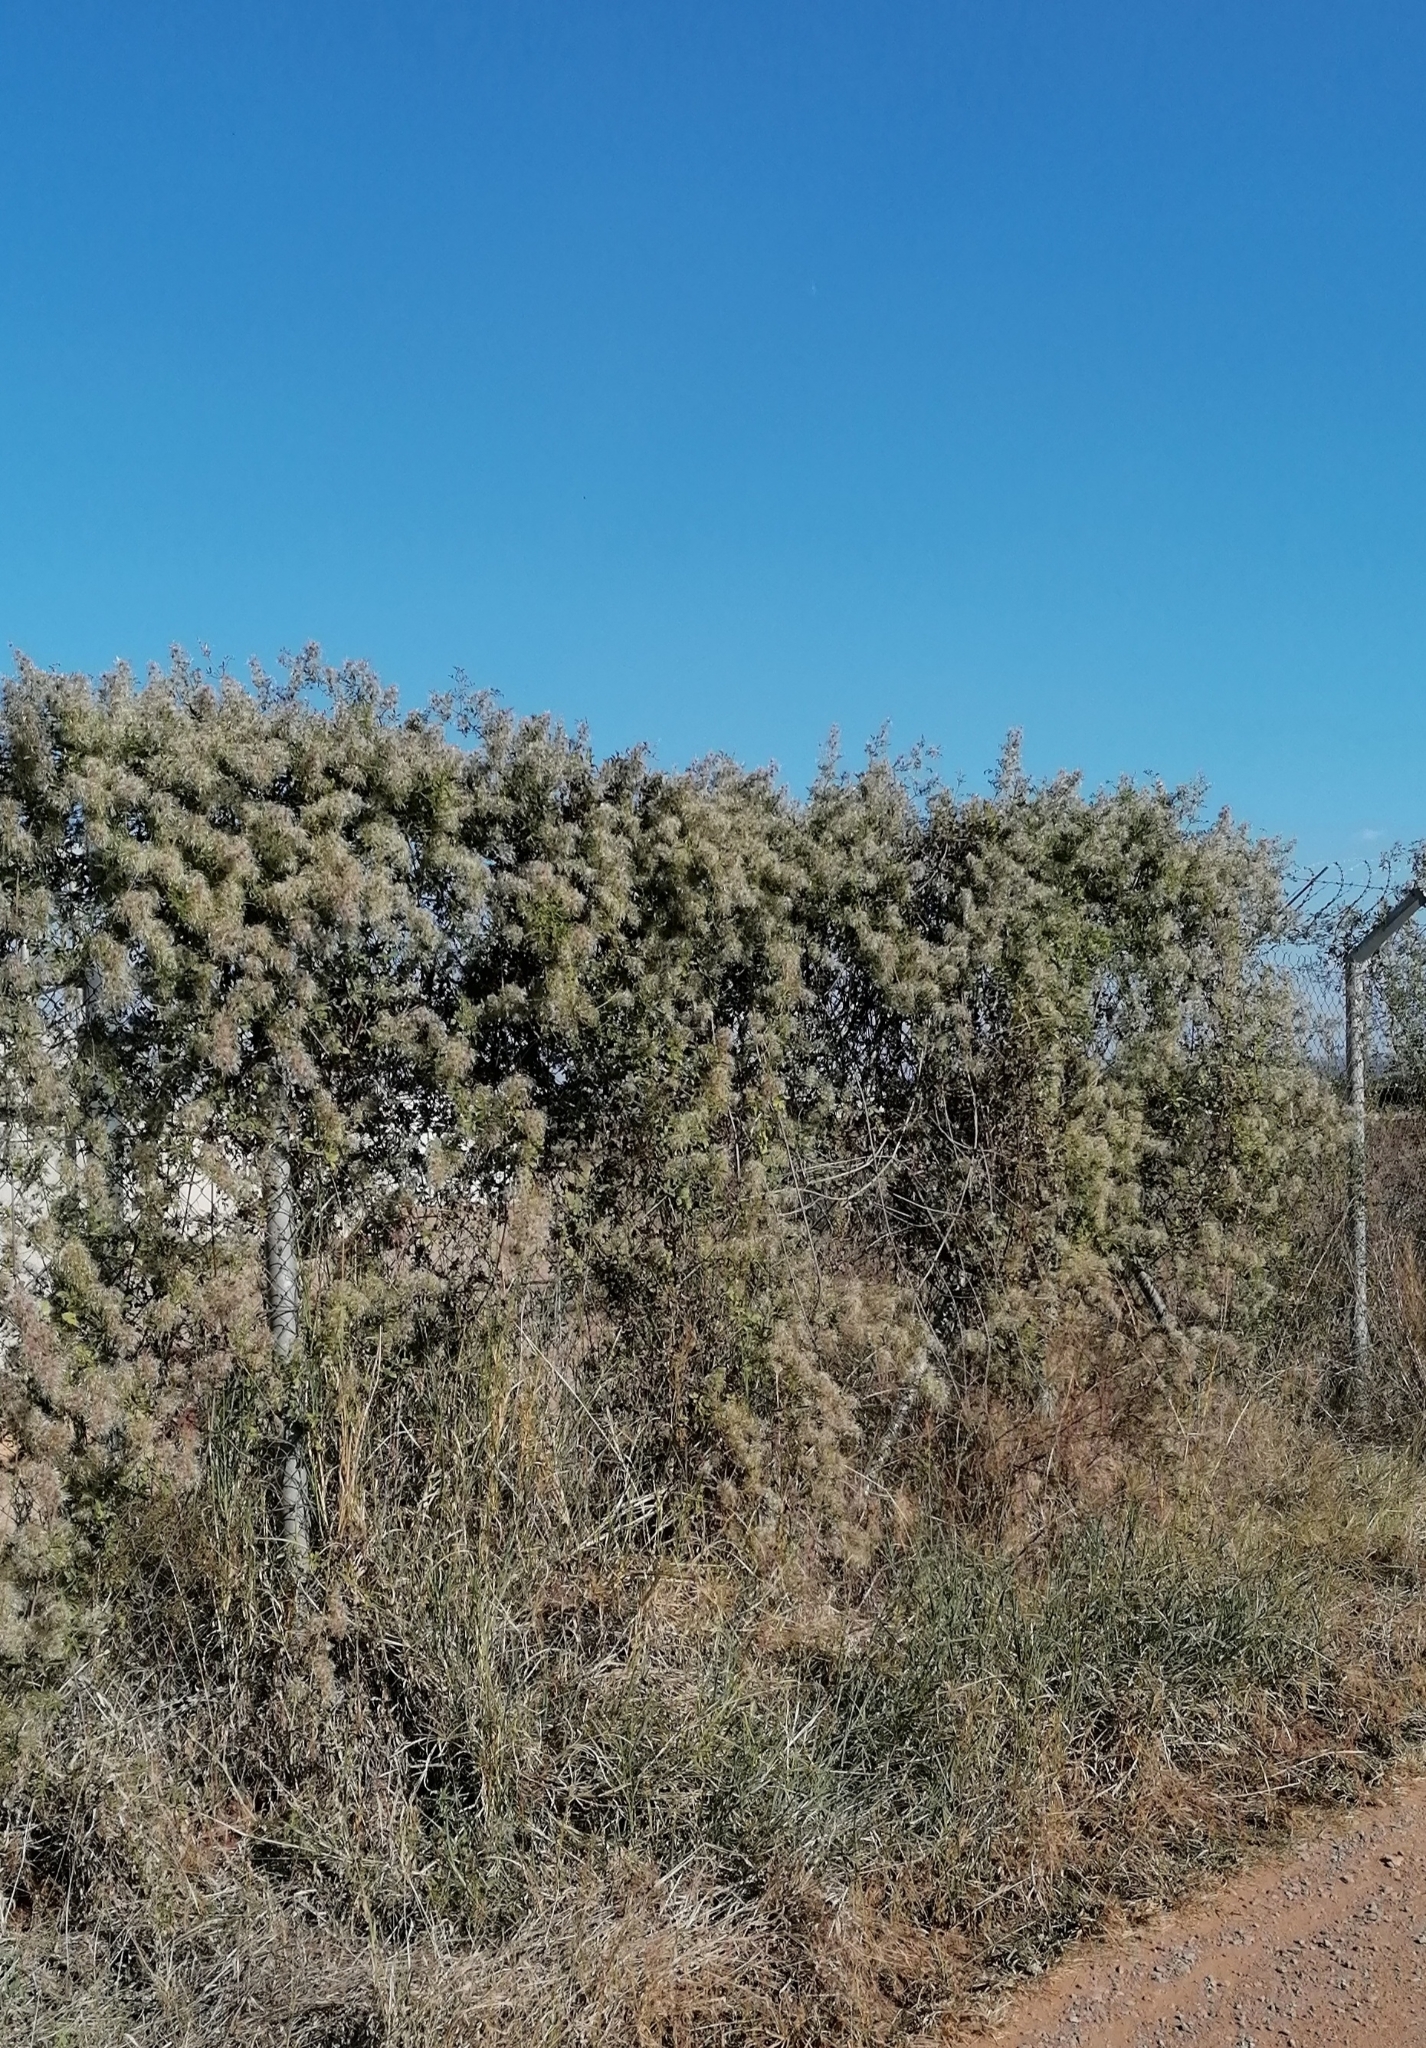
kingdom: Plantae
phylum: Tracheophyta
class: Magnoliopsida
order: Ranunculales
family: Ranunculaceae
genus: Clematis
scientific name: Clematis brachiata
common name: Traveler's-joy
